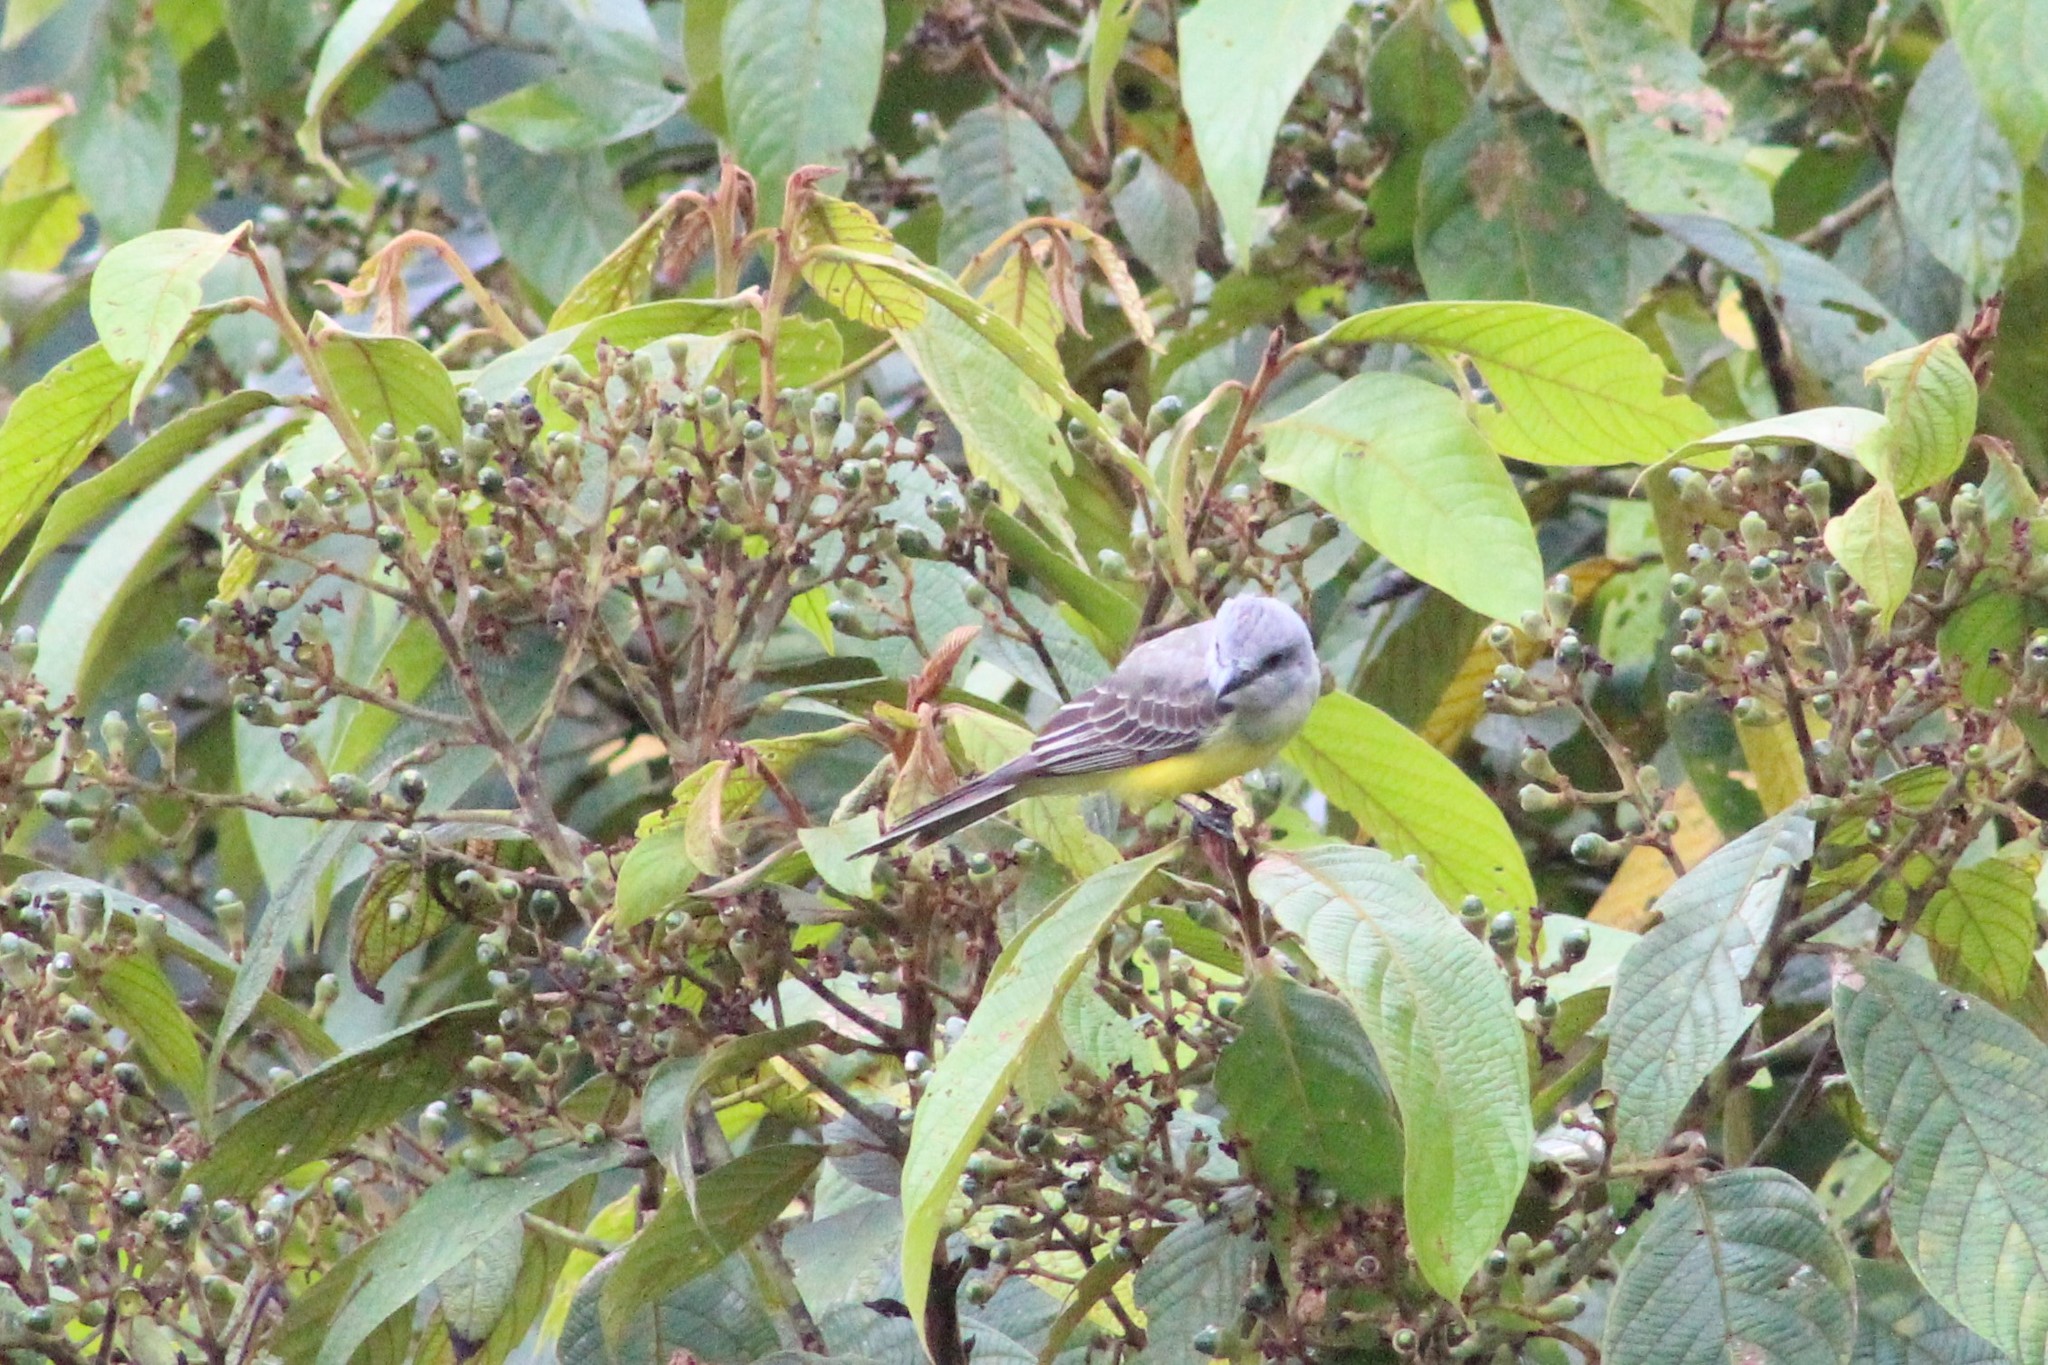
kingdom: Animalia
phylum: Chordata
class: Aves
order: Passeriformes
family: Tyrannidae
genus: Tyrannus
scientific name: Tyrannus melancholicus
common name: Tropical kingbird
